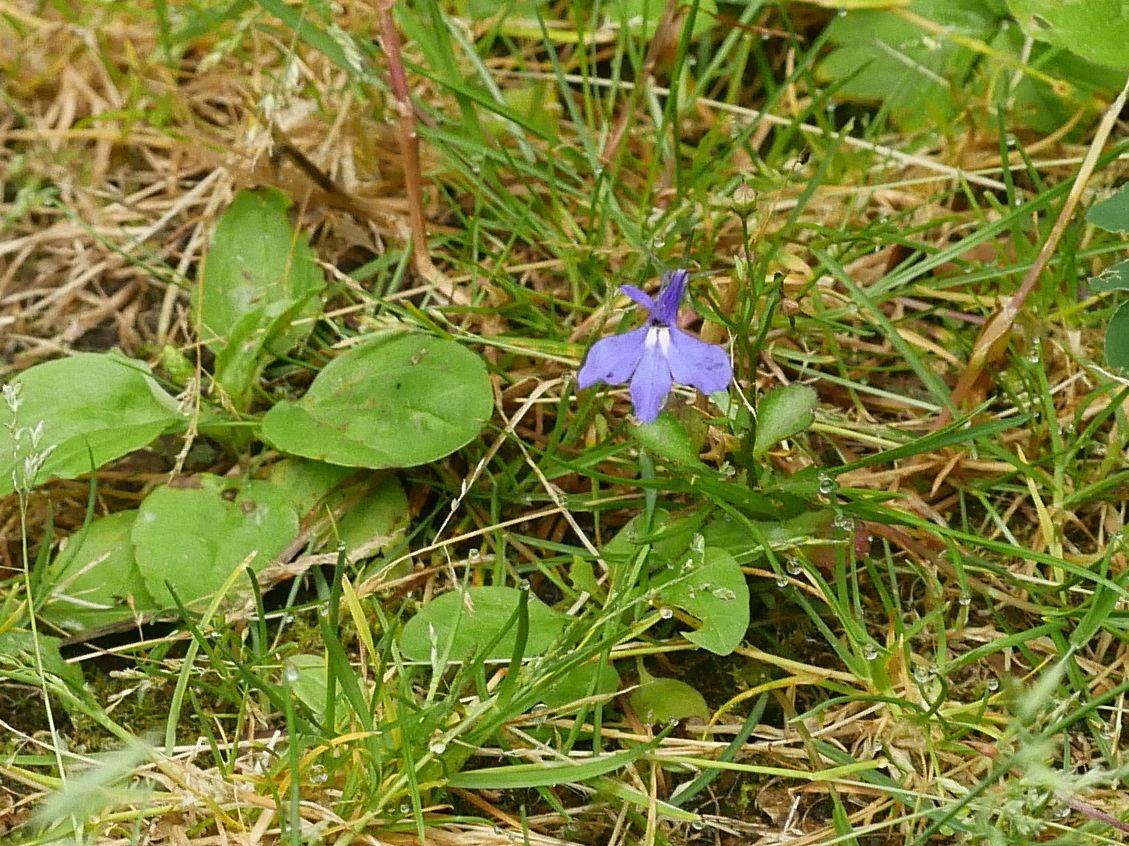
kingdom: Plantae
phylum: Tracheophyta
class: Magnoliopsida
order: Asterales
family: Campanulaceae
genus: Lobelia
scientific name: Lobelia erinus
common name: Edging lobelia
